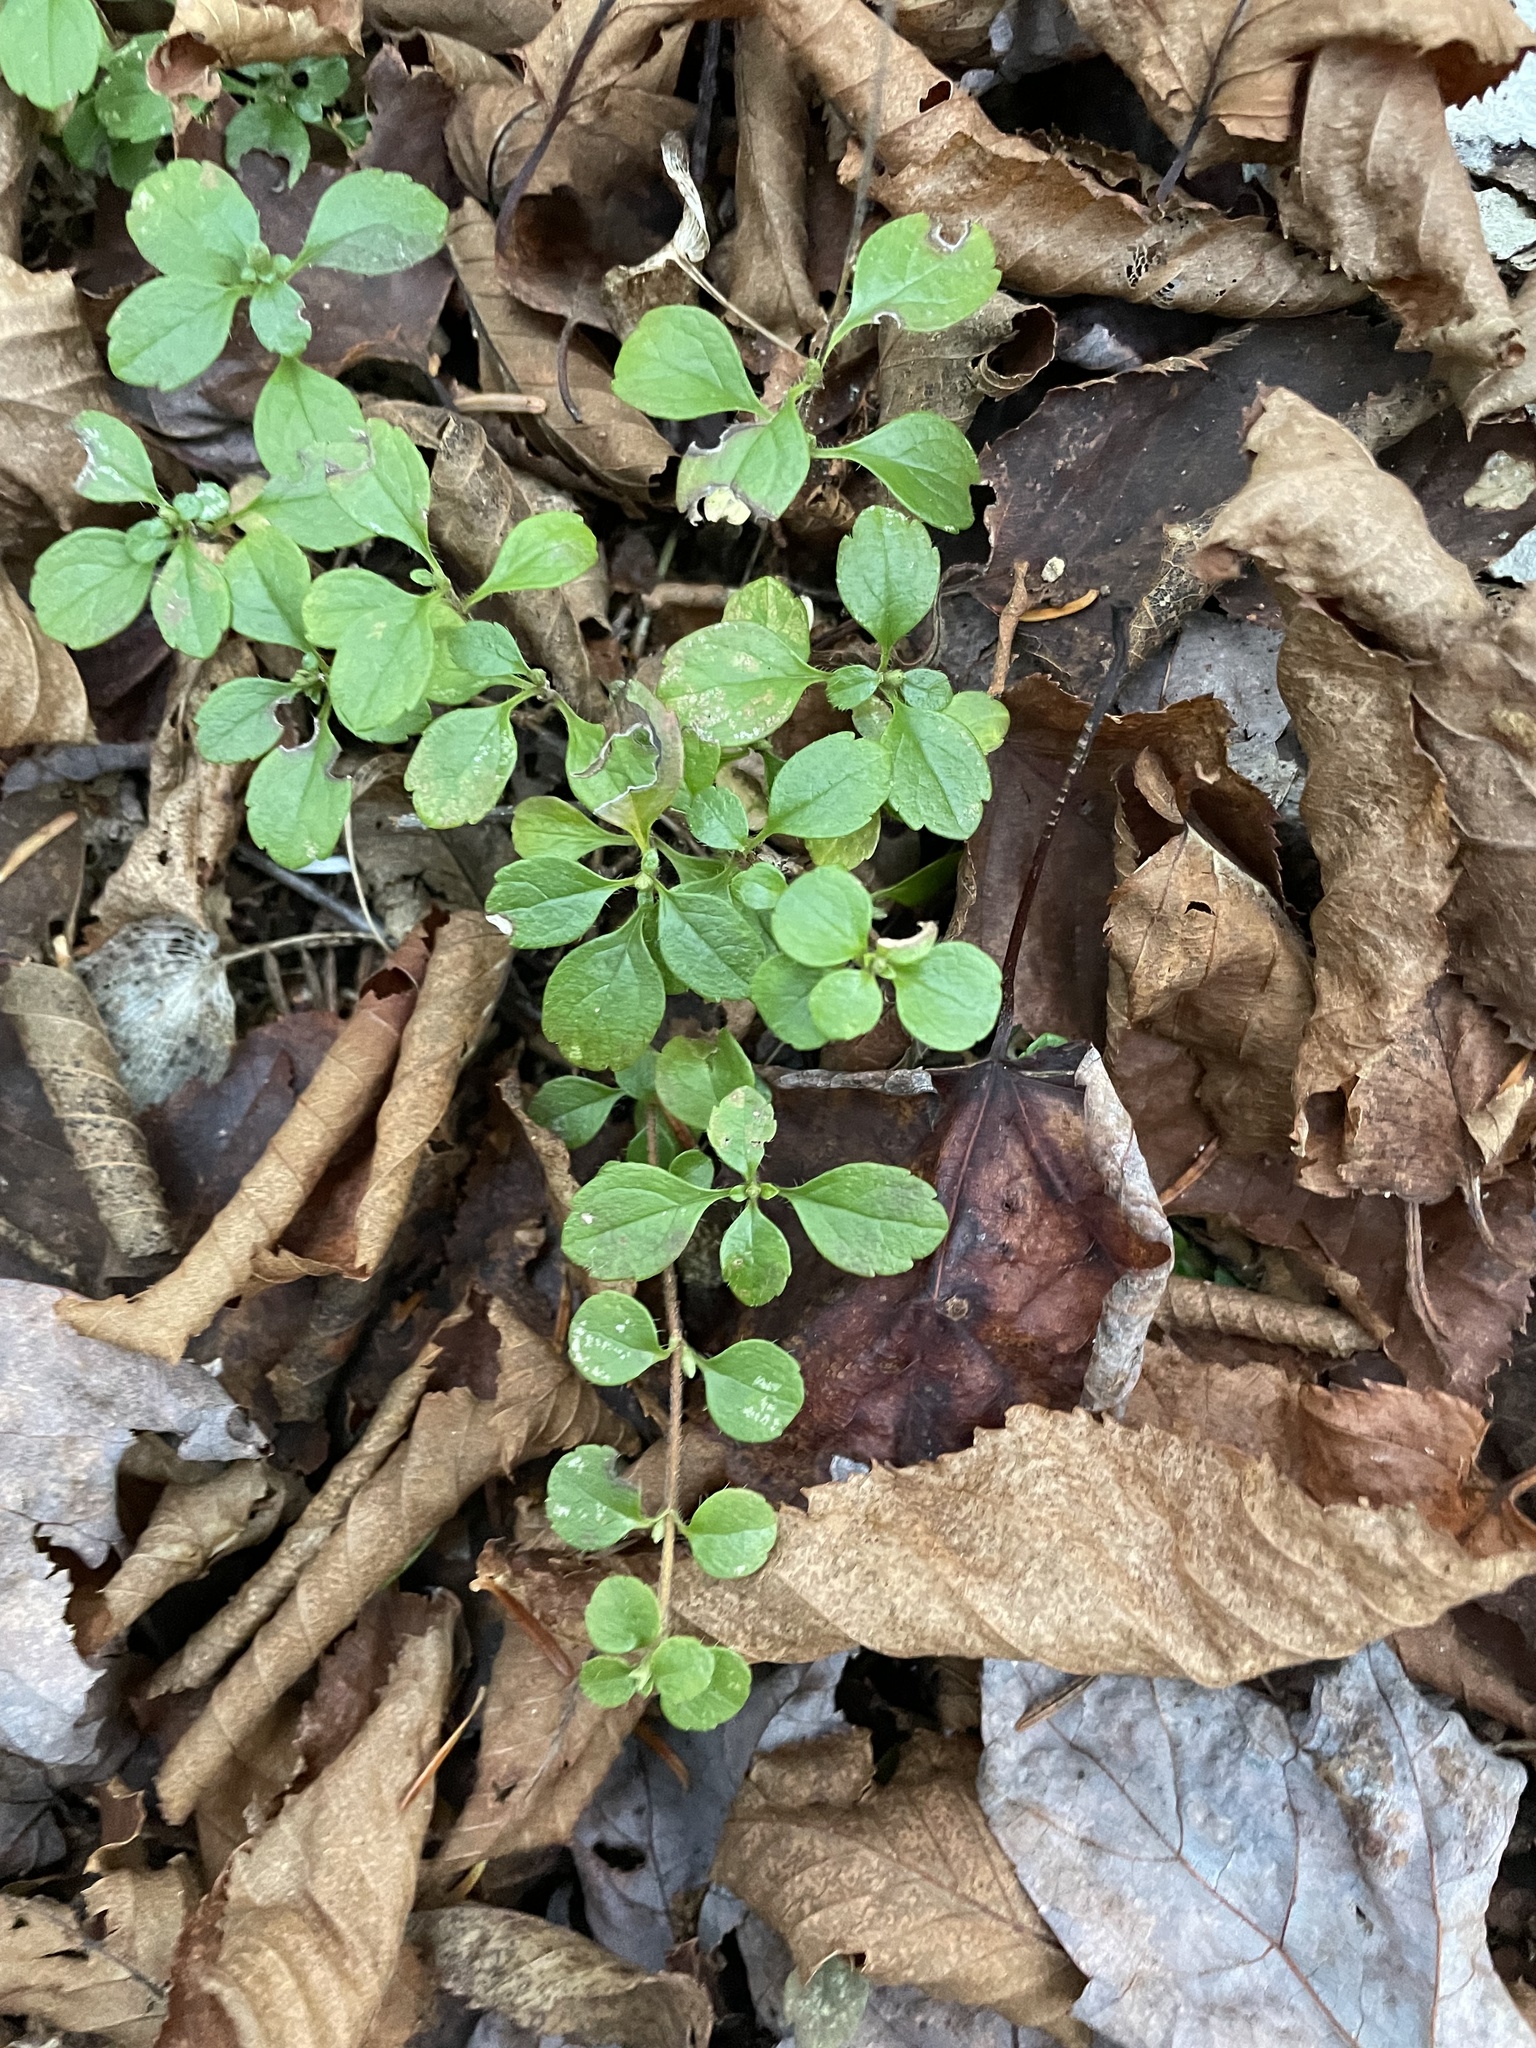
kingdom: Plantae
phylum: Tracheophyta
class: Magnoliopsida
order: Dipsacales
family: Caprifoliaceae
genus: Linnaea
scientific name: Linnaea borealis
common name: Twinflower
